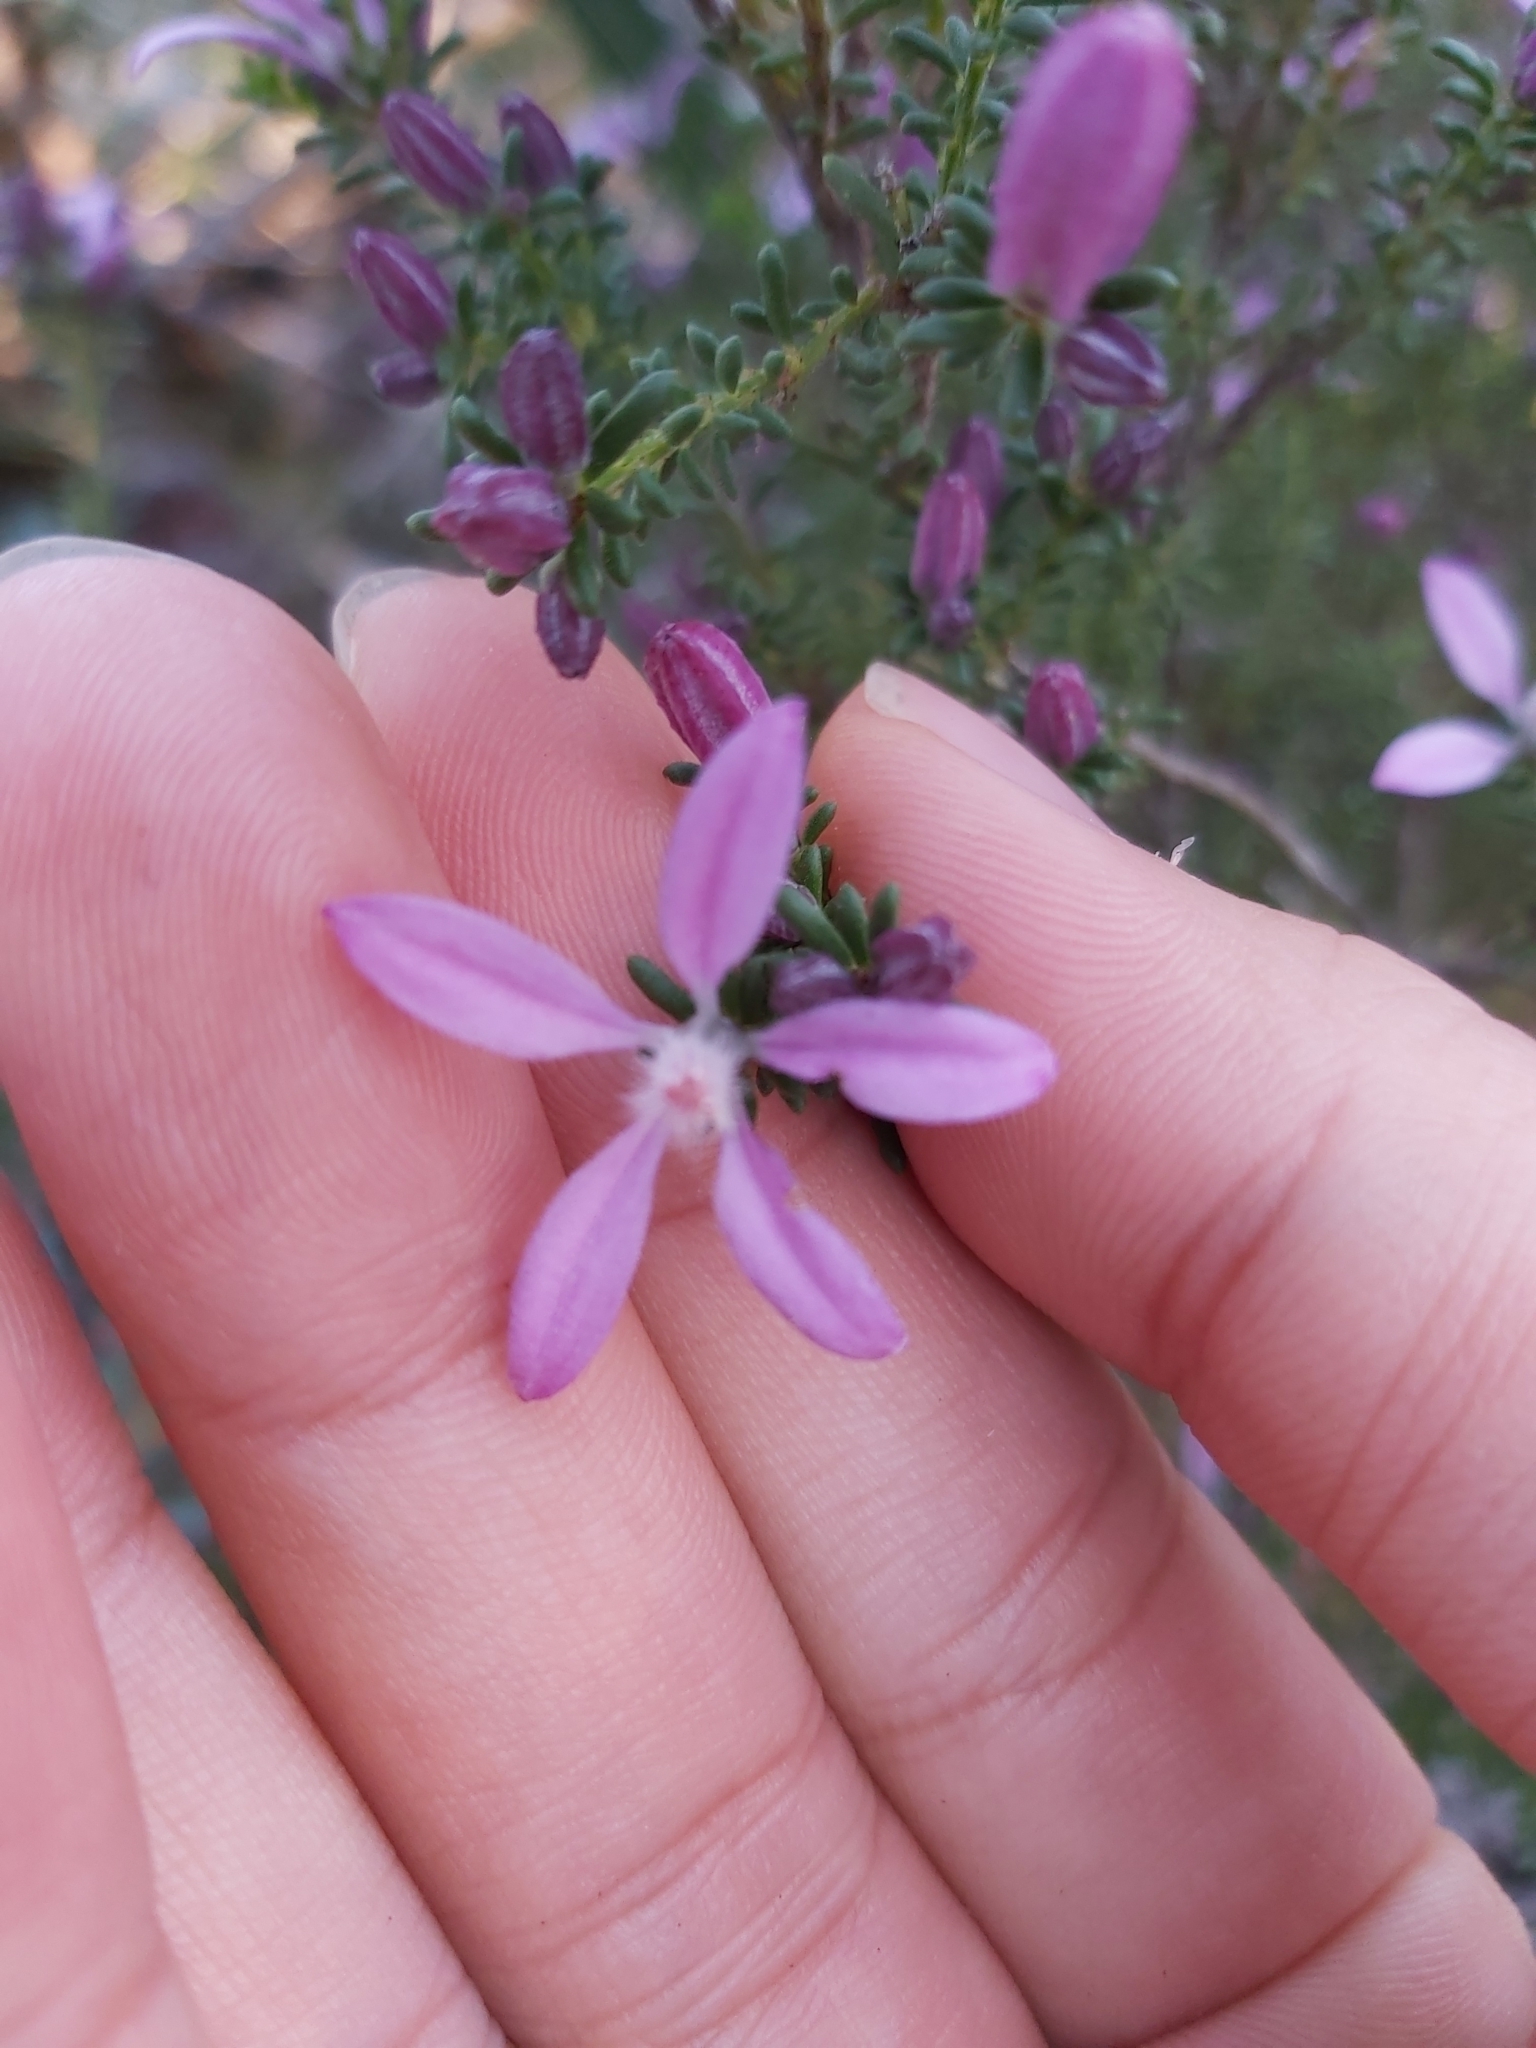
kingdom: Plantae
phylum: Tracheophyta
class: Magnoliopsida
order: Sapindales
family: Rutaceae
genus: Philotheca
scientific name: Philotheca salsolifolia
